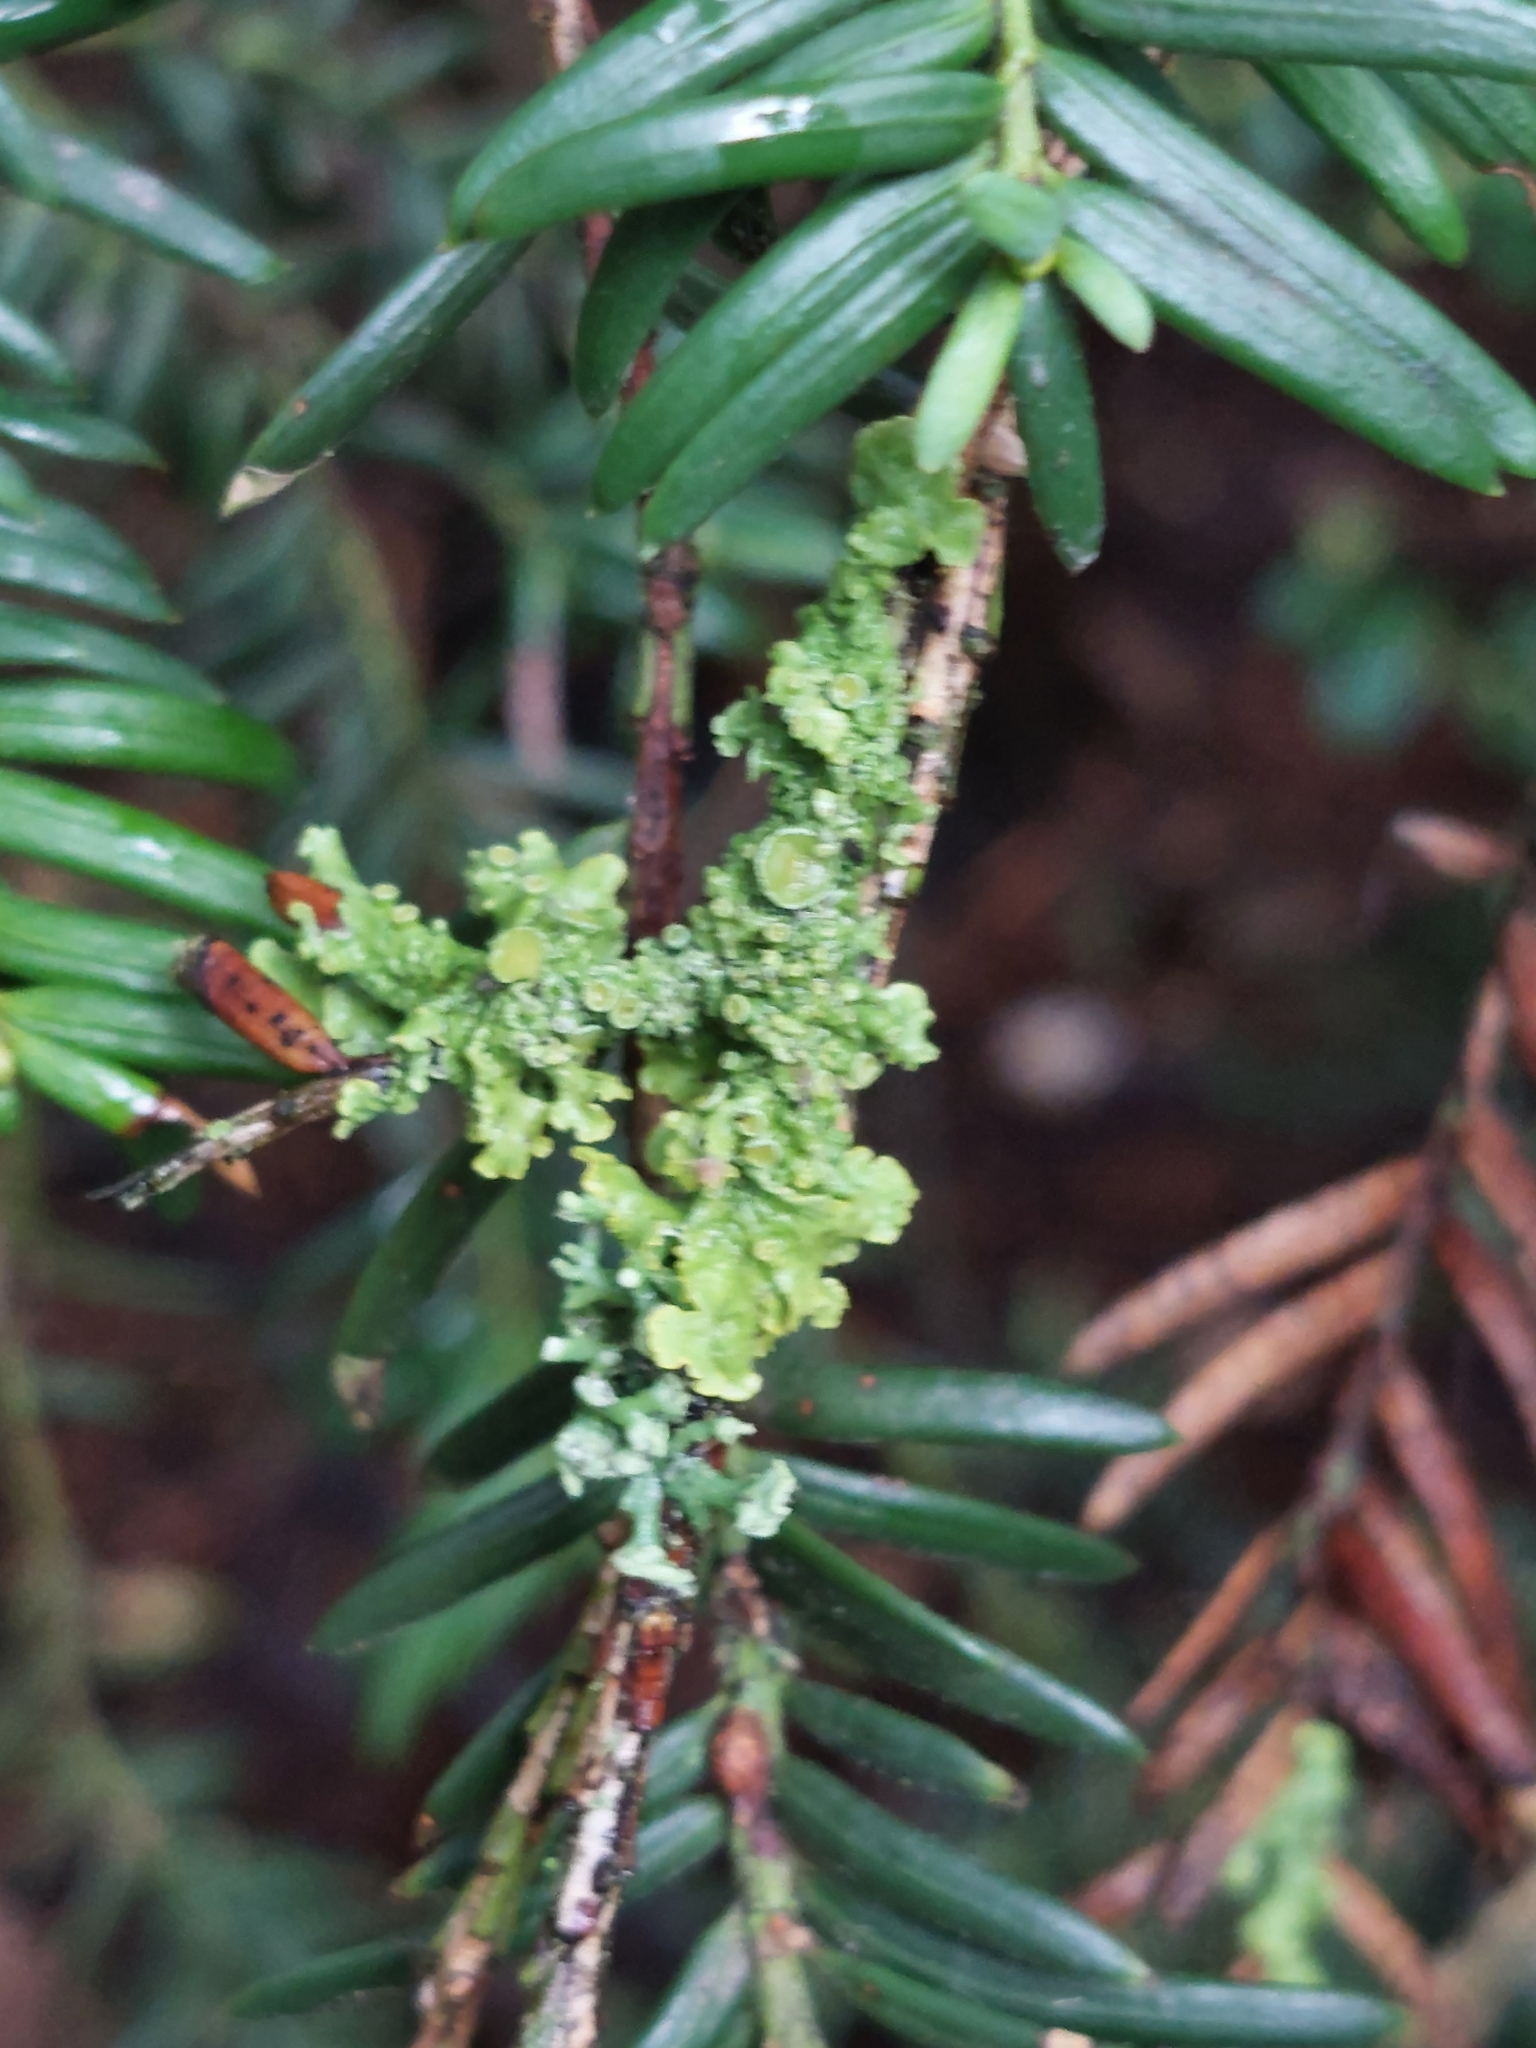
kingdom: Fungi
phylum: Ascomycota
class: Lecanoromycetes
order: Teloschistales
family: Teloschistaceae
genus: Xanthoria
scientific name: Xanthoria parietina
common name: Common orange lichen
